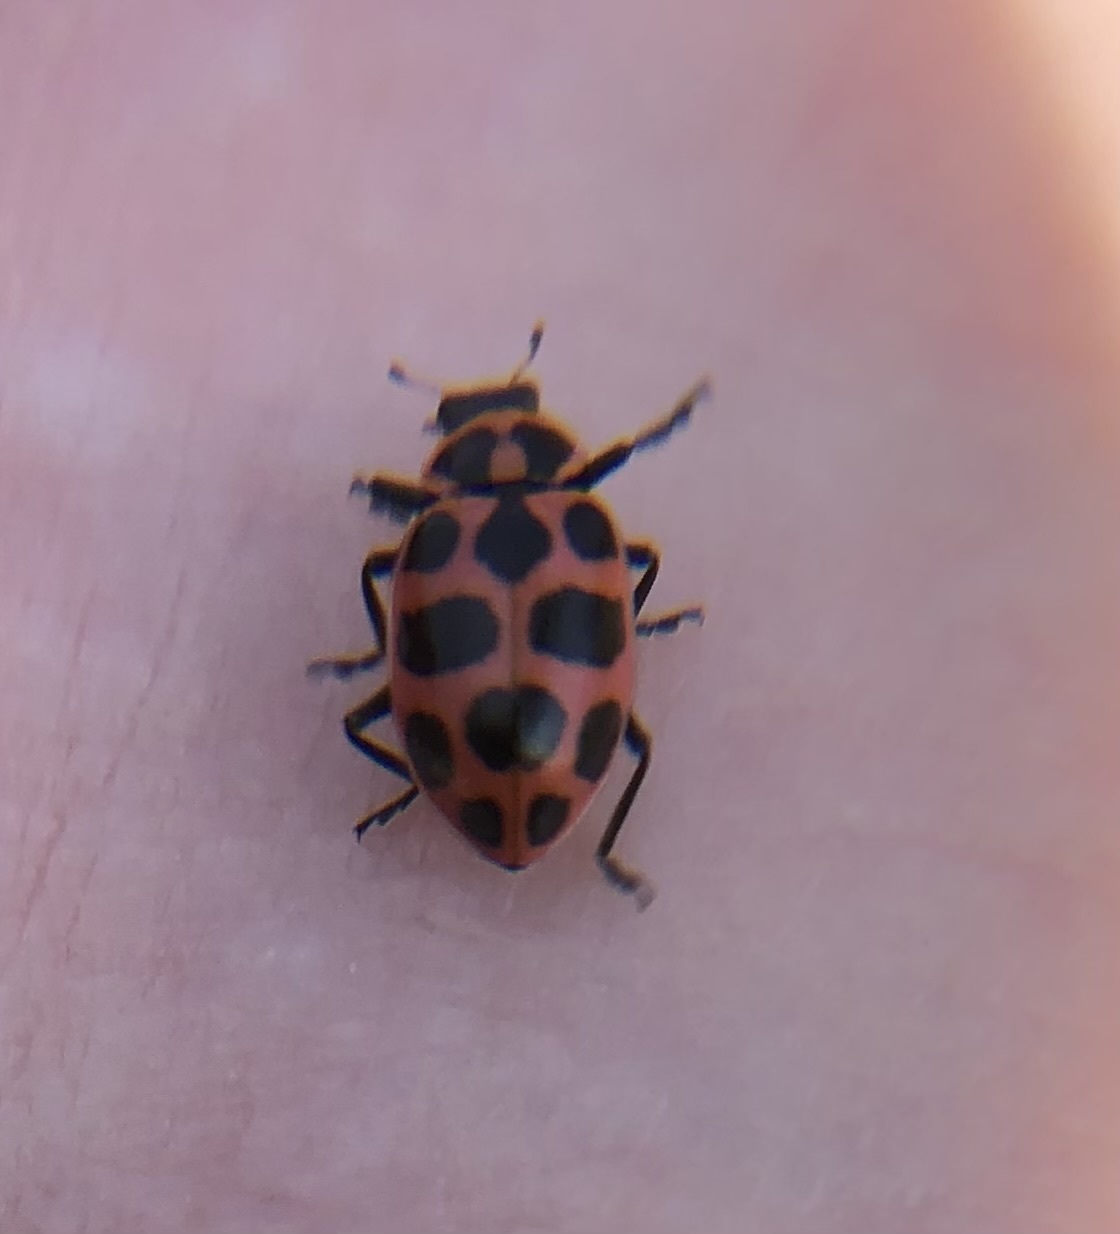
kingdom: Animalia
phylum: Arthropoda
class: Insecta
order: Coleoptera
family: Coccinellidae
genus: Coleomegilla
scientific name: Coleomegilla maculata
